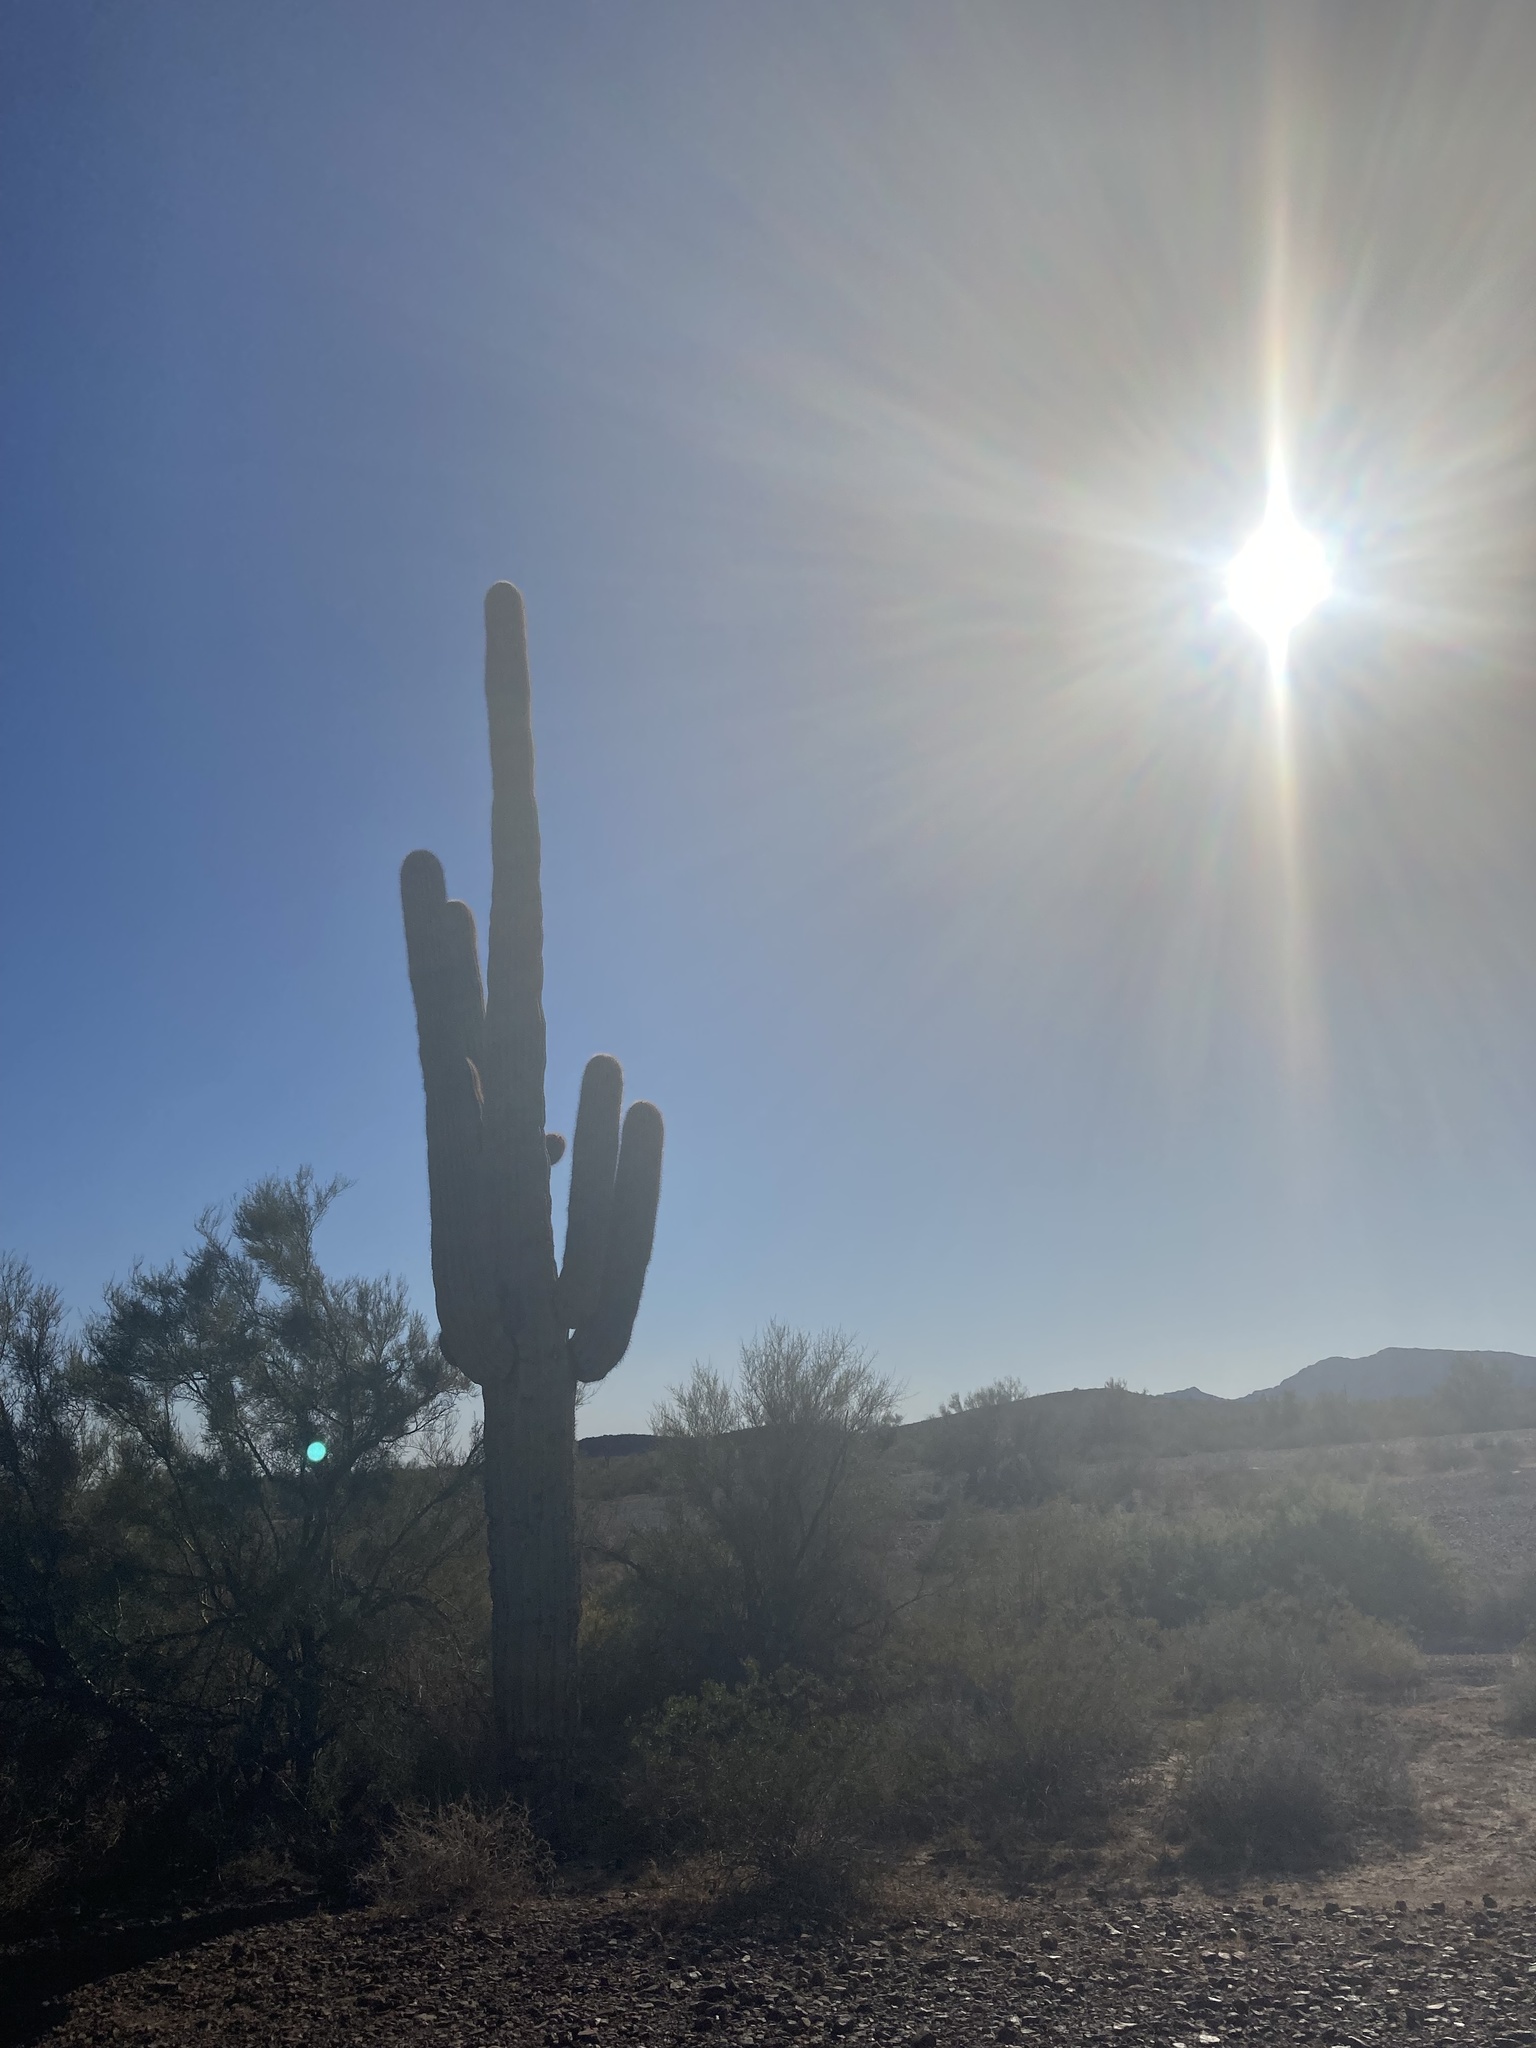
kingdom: Plantae
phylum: Tracheophyta
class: Magnoliopsida
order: Caryophyllales
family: Cactaceae
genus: Carnegiea
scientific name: Carnegiea gigantea
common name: Saguaro
